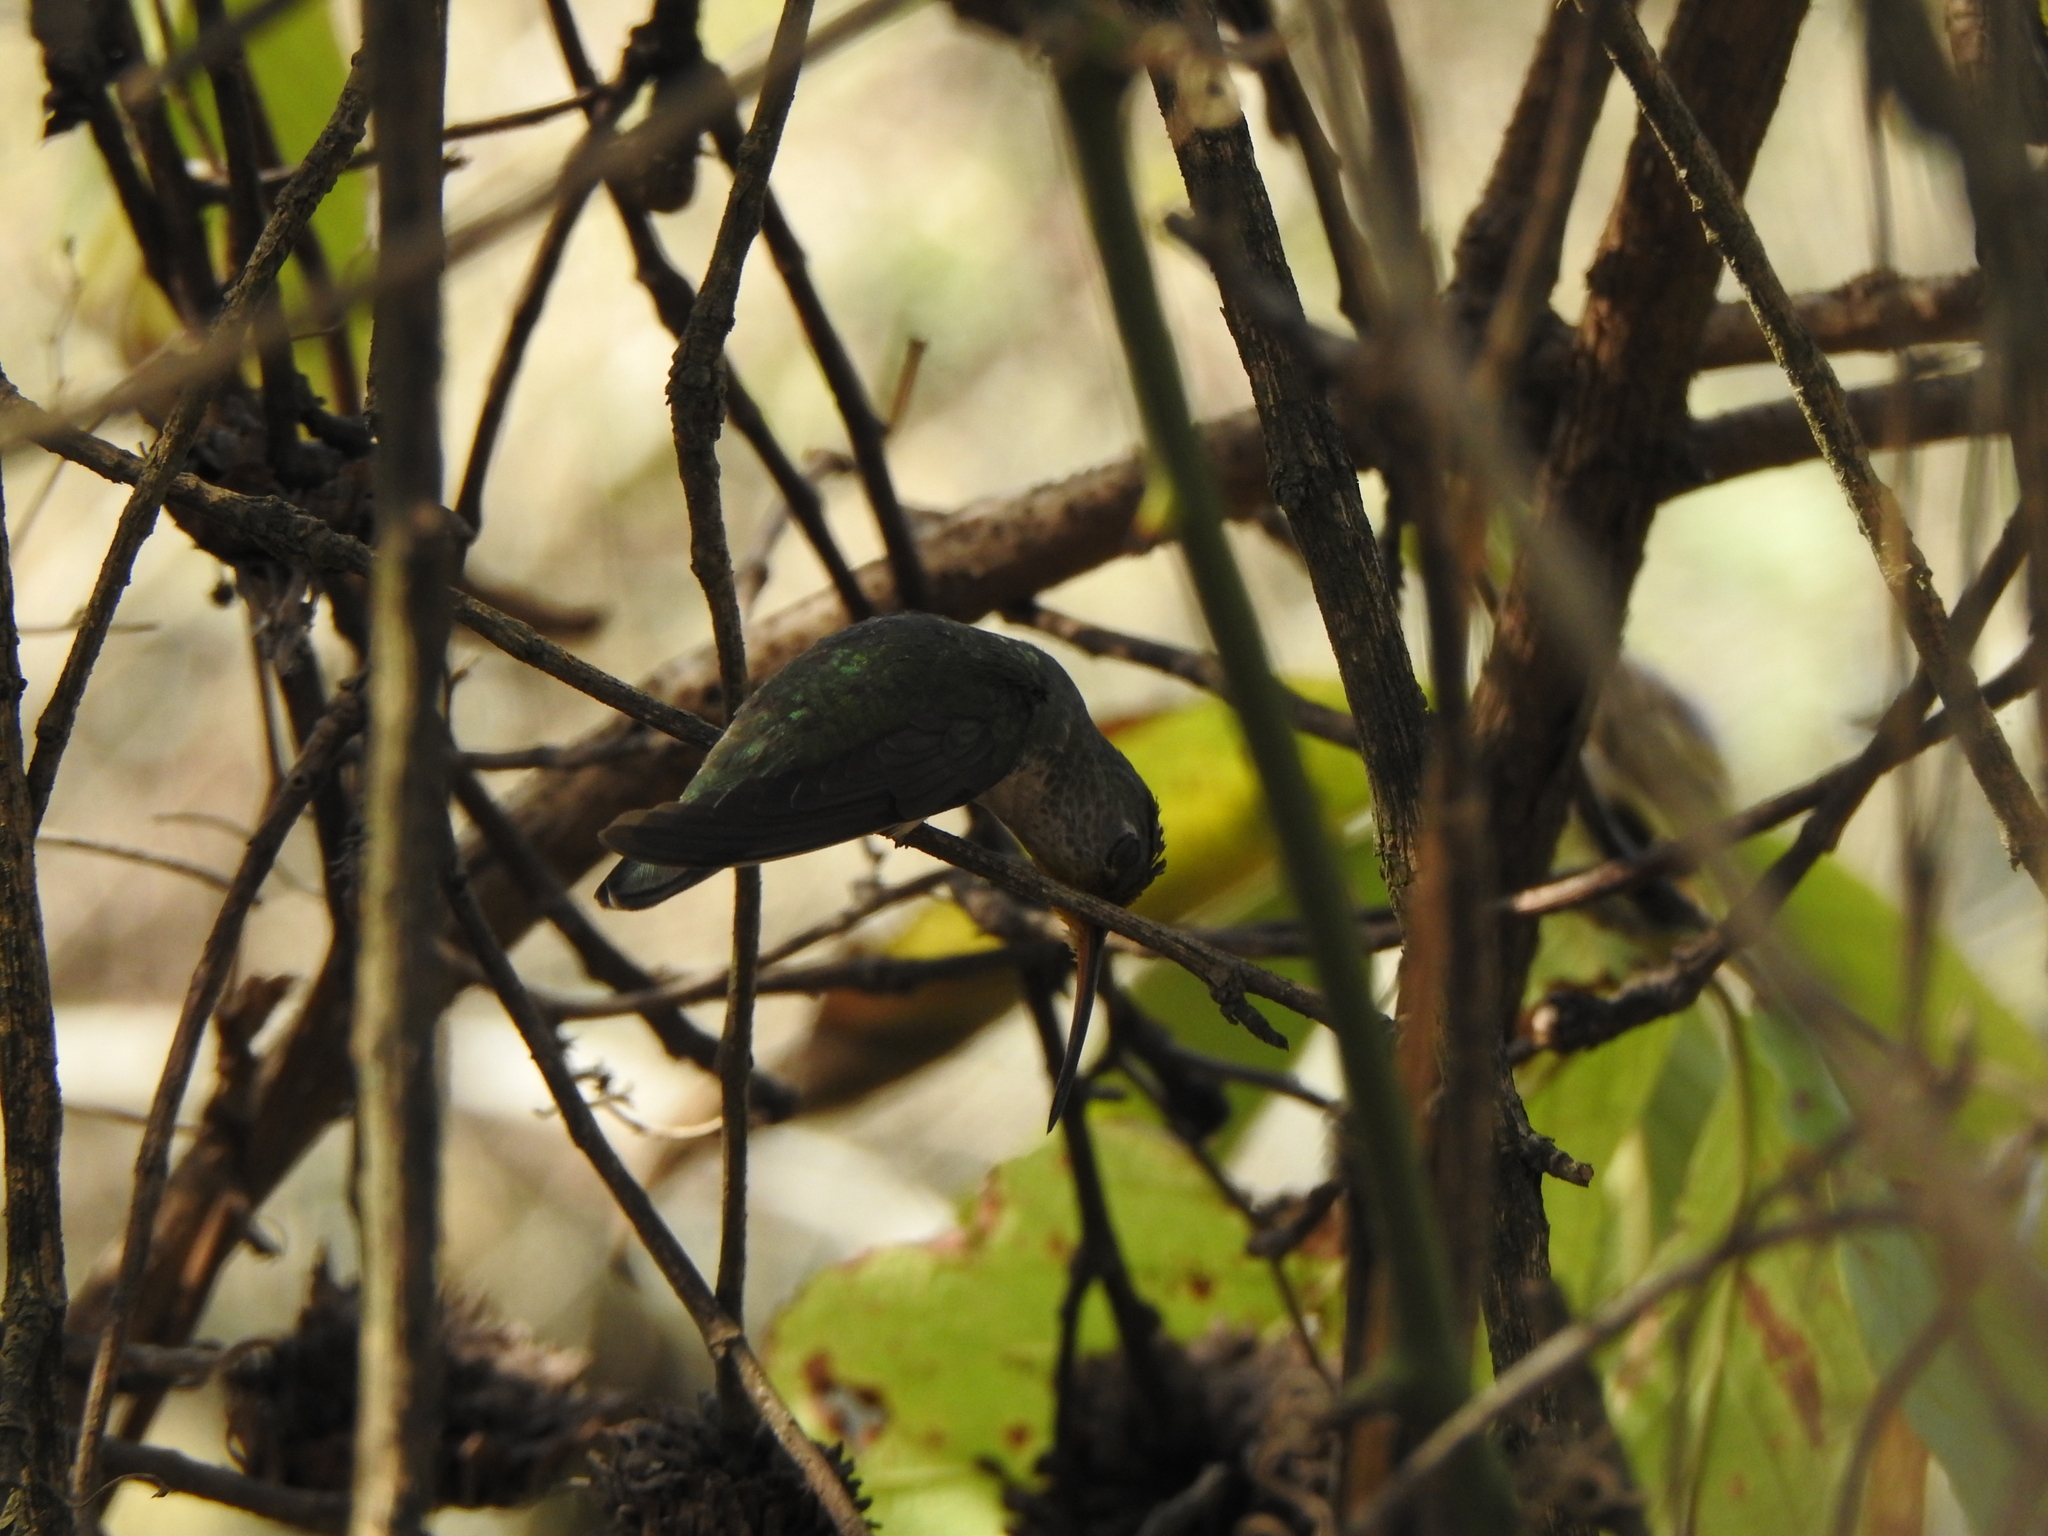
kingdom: Animalia
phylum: Chordata
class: Aves
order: Apodiformes
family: Trochilidae
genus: Elliotomyia
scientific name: Elliotomyia chionogaster
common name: White-bellied hummingbird
